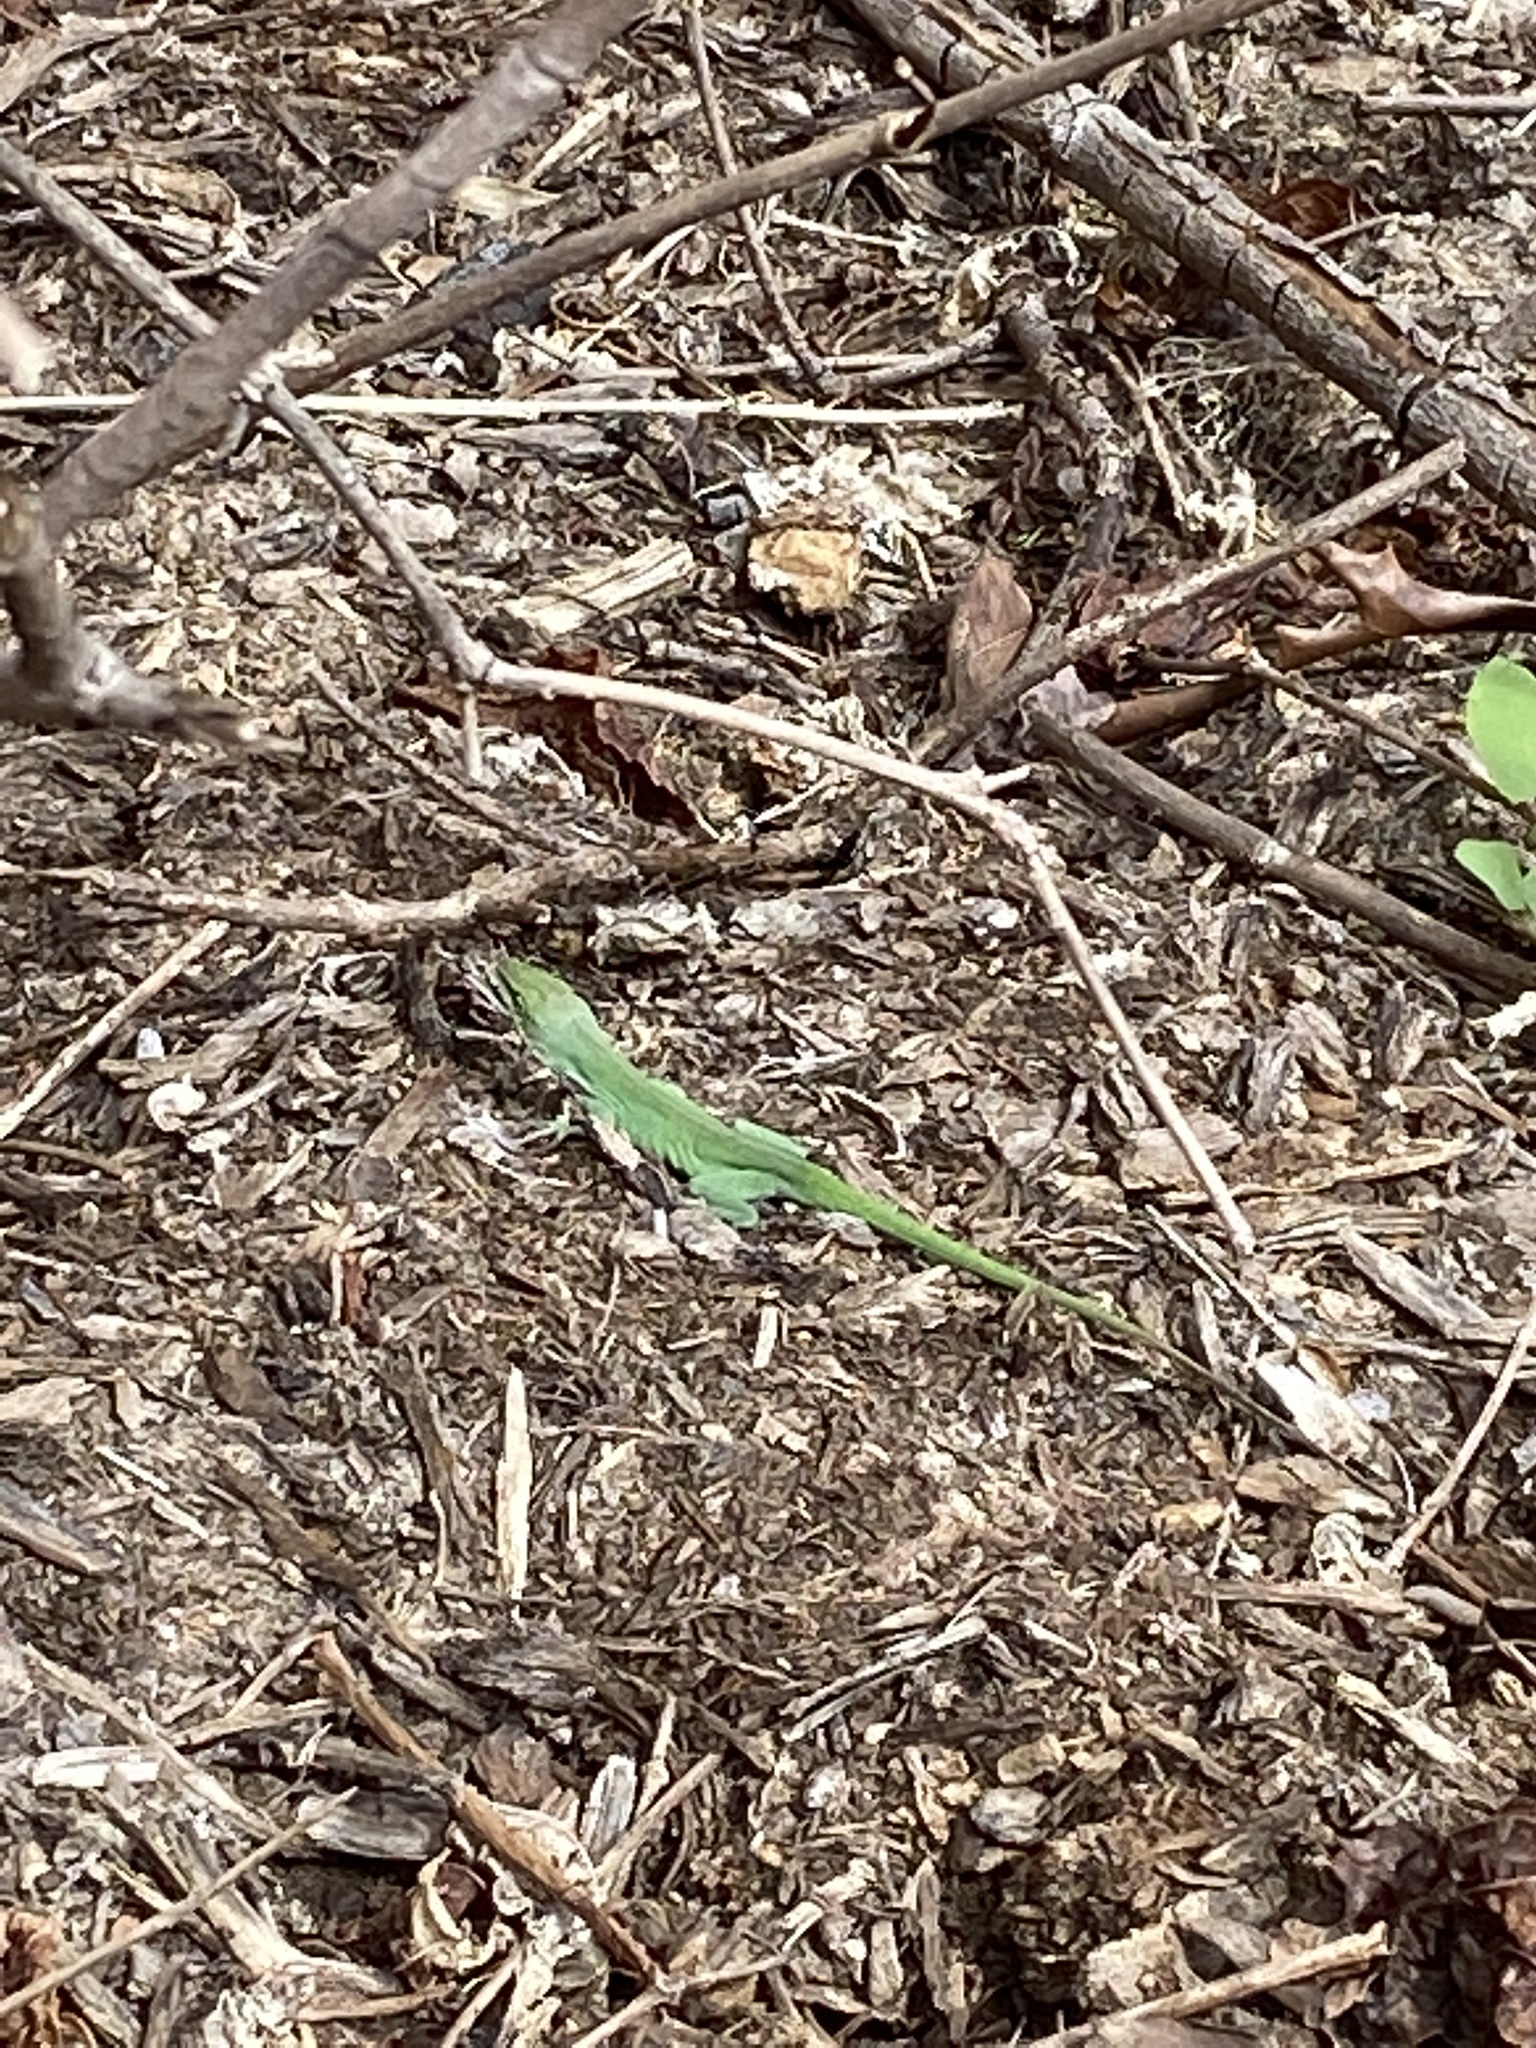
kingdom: Animalia
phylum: Chordata
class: Squamata
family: Dactyloidae
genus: Anolis
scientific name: Anolis carolinensis
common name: Green anole
